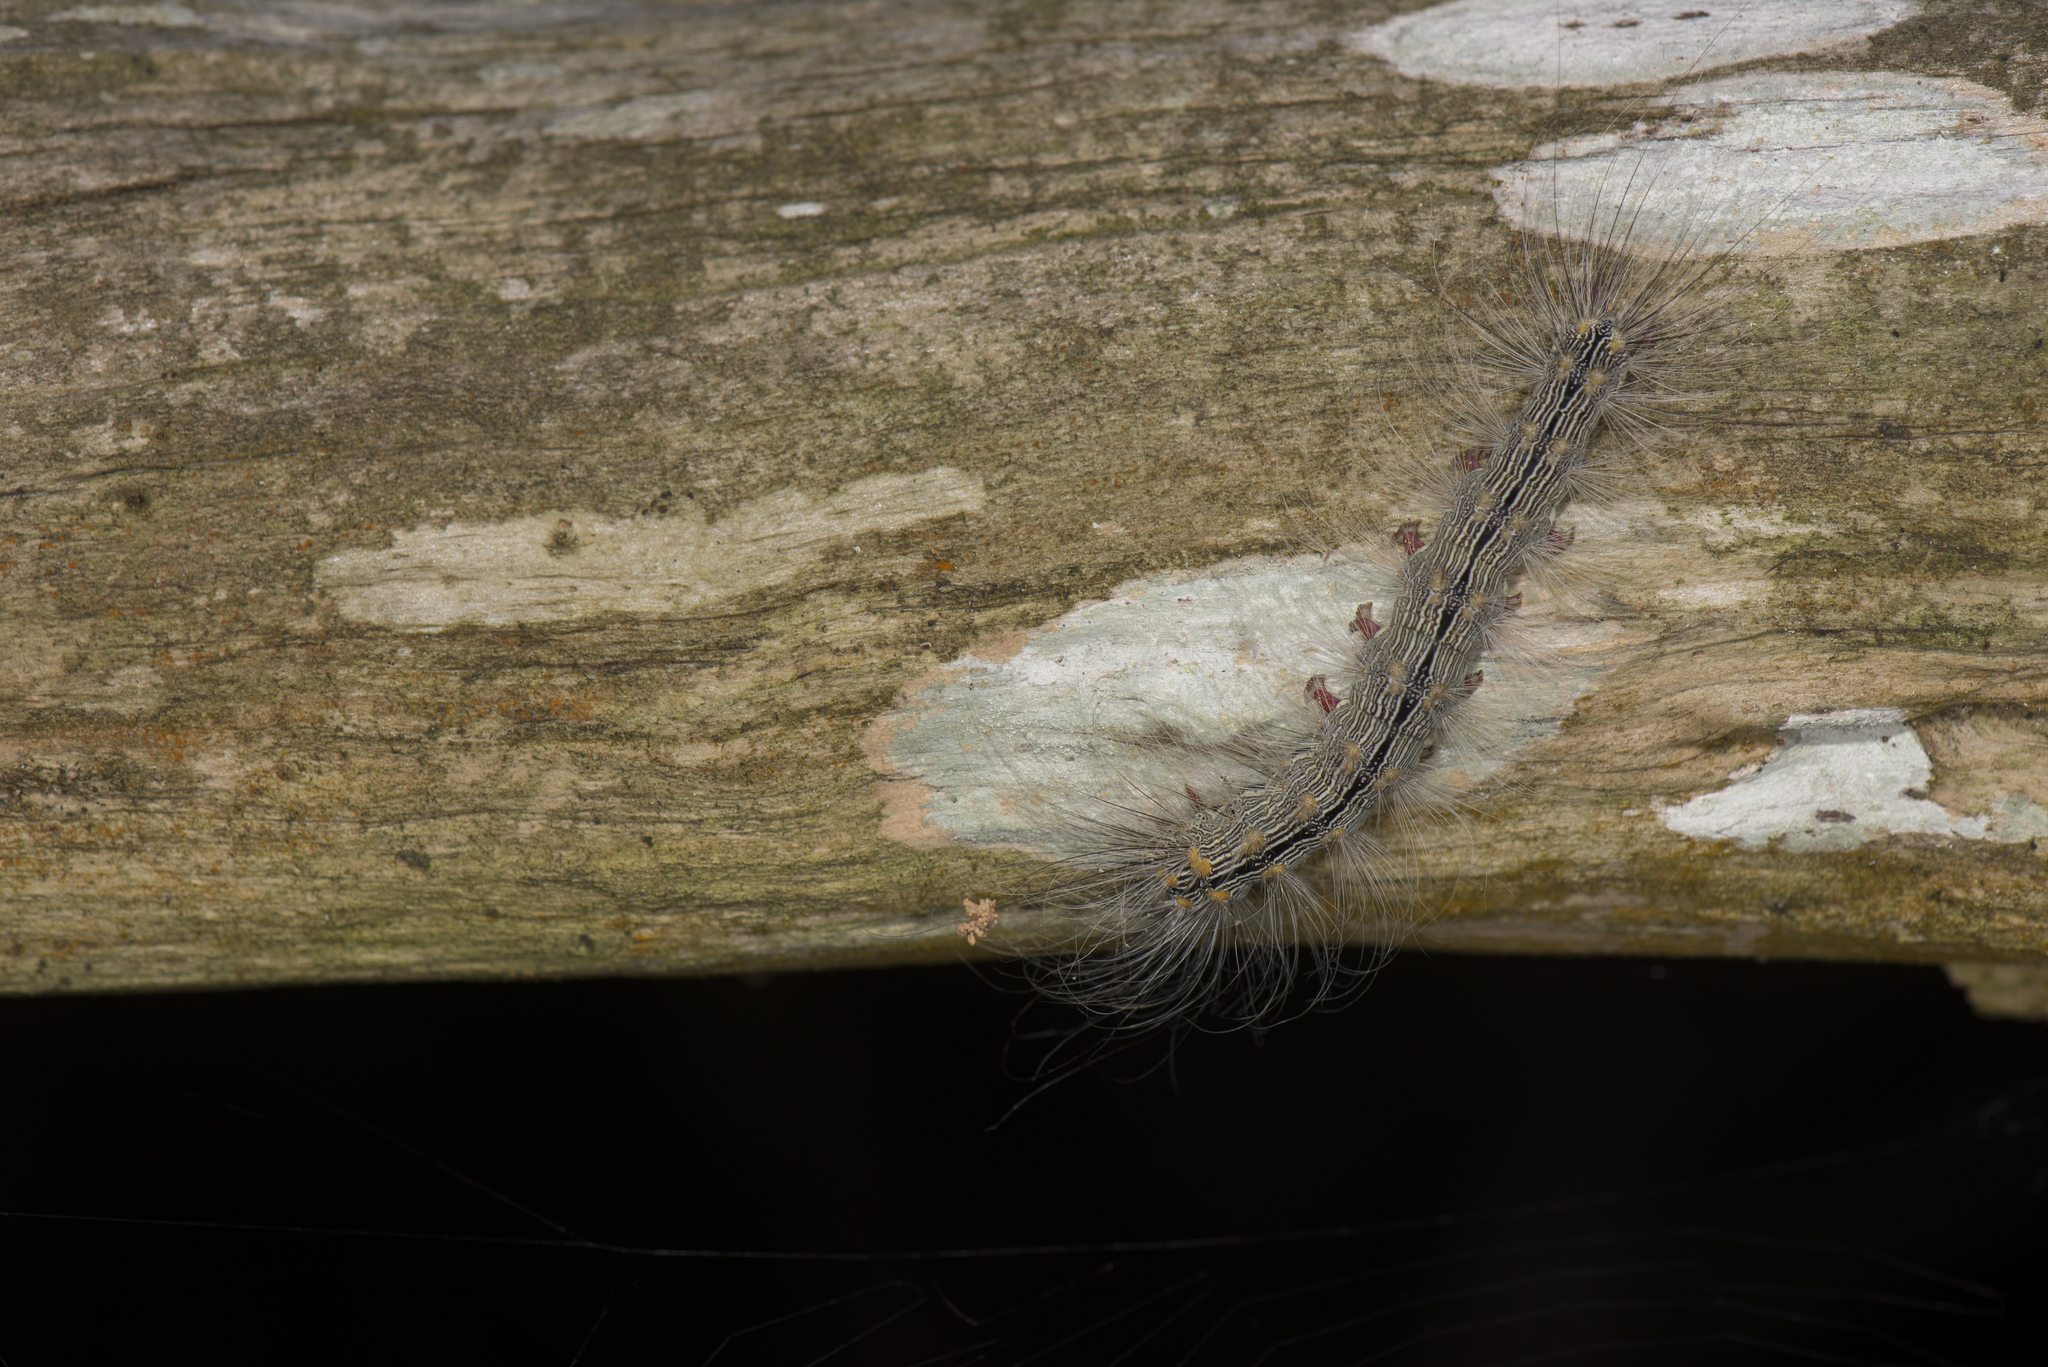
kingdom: Animalia
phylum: Arthropoda
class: Insecta
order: Lepidoptera
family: Erebidae
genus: Chrysaeglia
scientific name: Chrysaeglia magnifica
